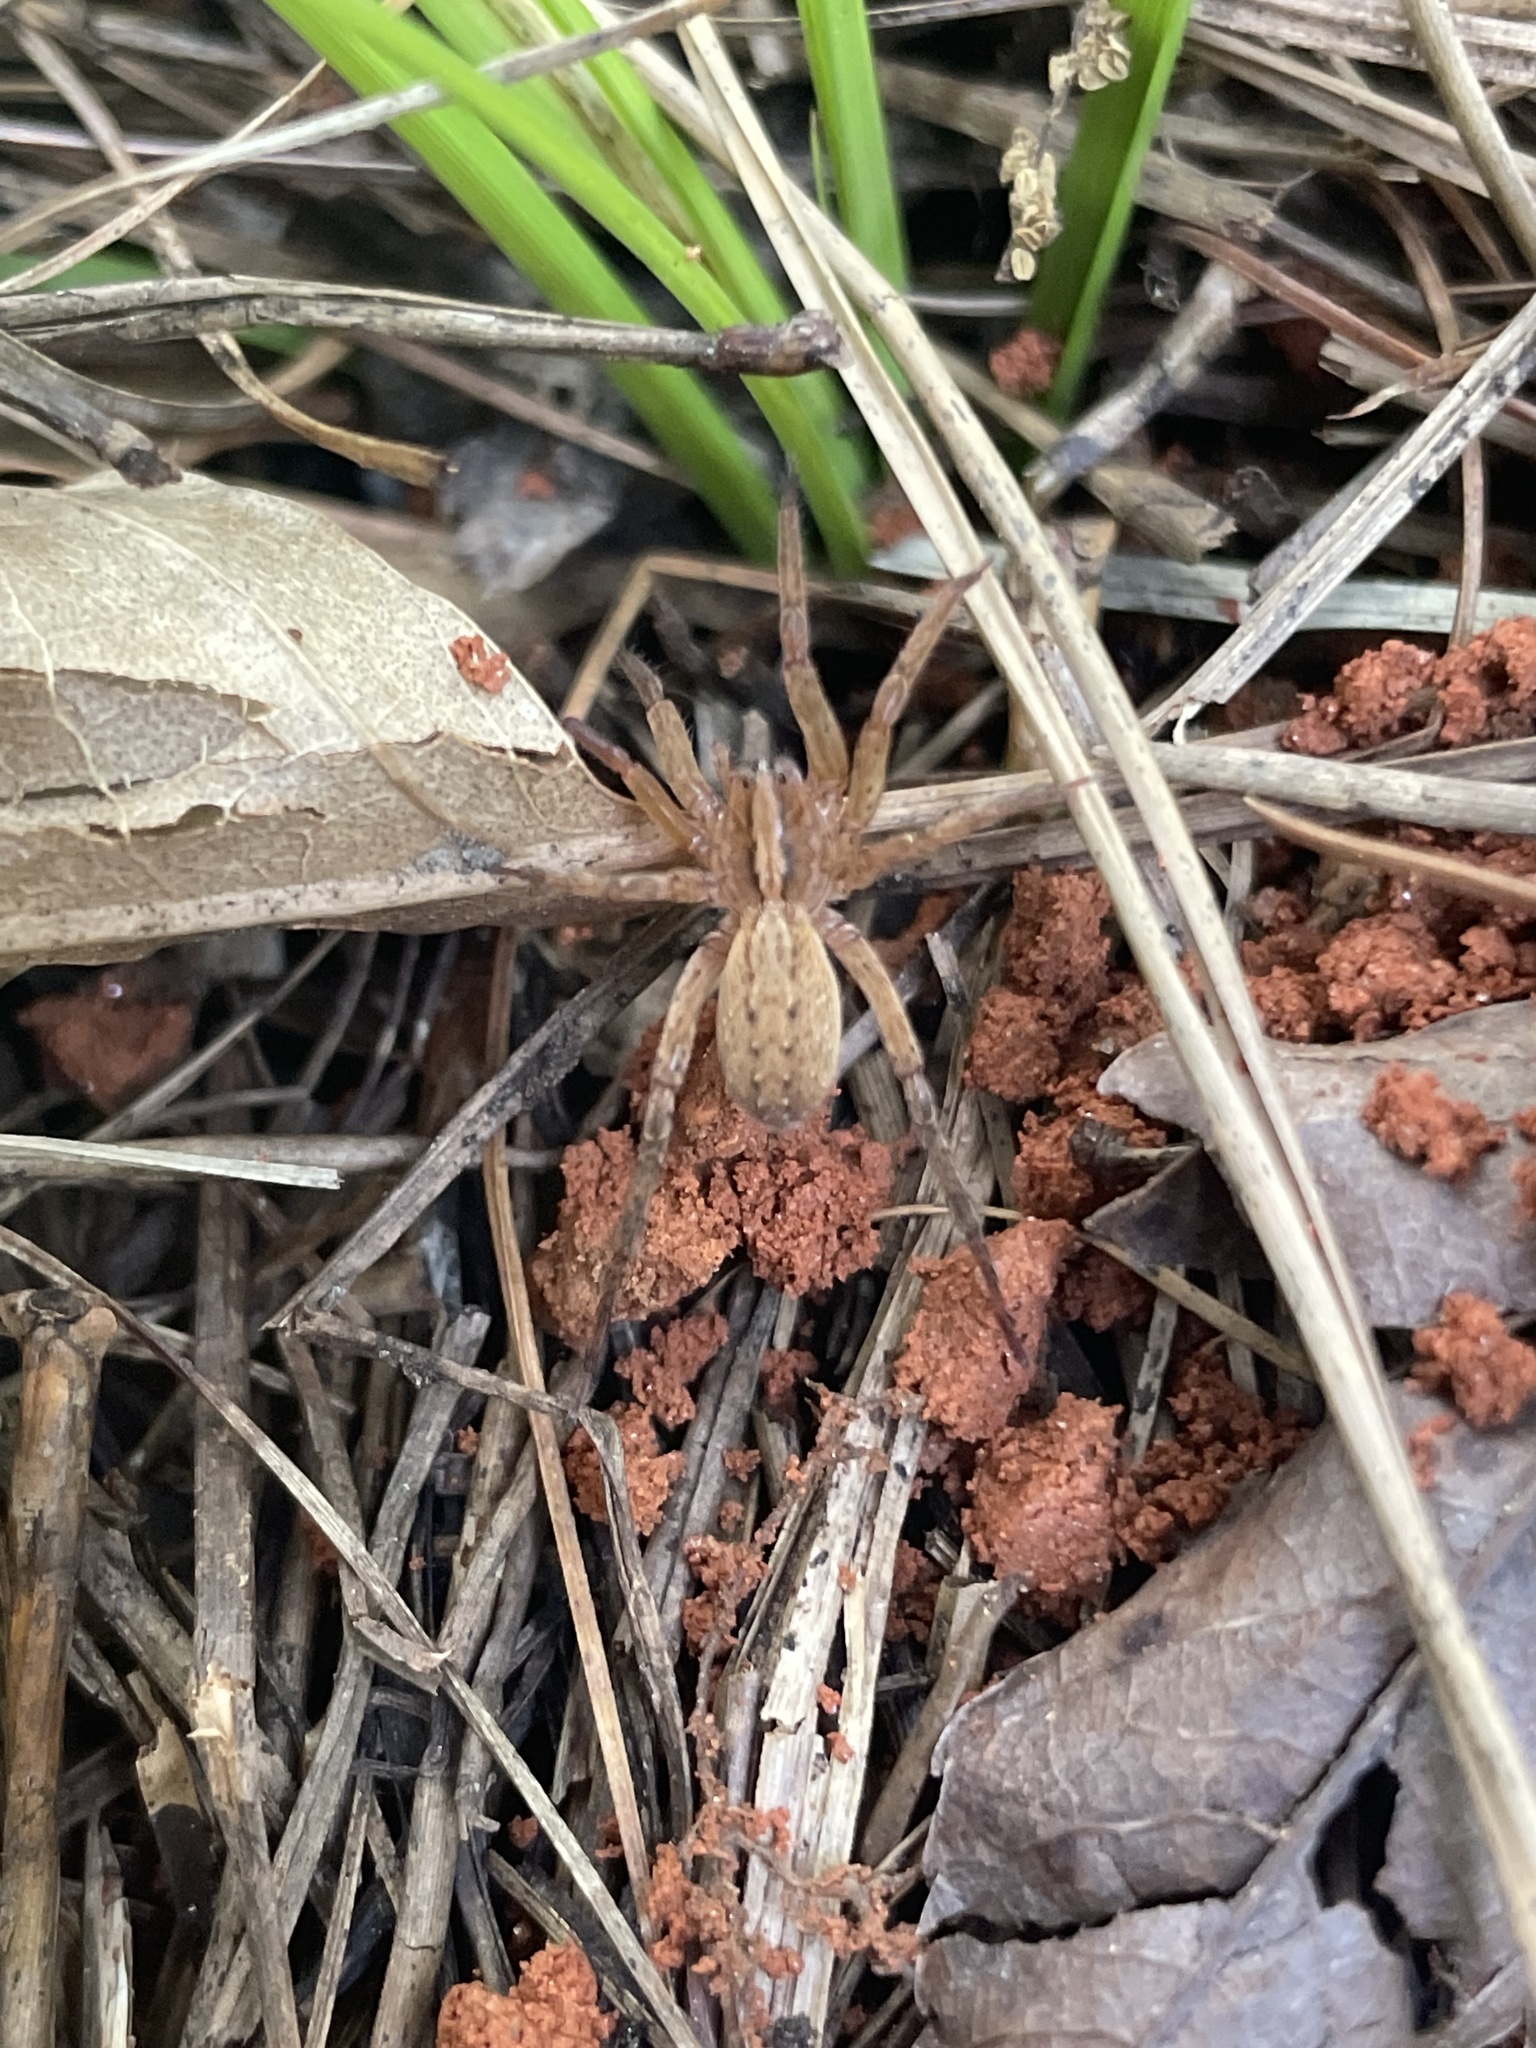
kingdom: Animalia
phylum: Arthropoda
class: Arachnida
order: Araneae
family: Ctenidae
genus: Anahita
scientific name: Anahita punctulata
